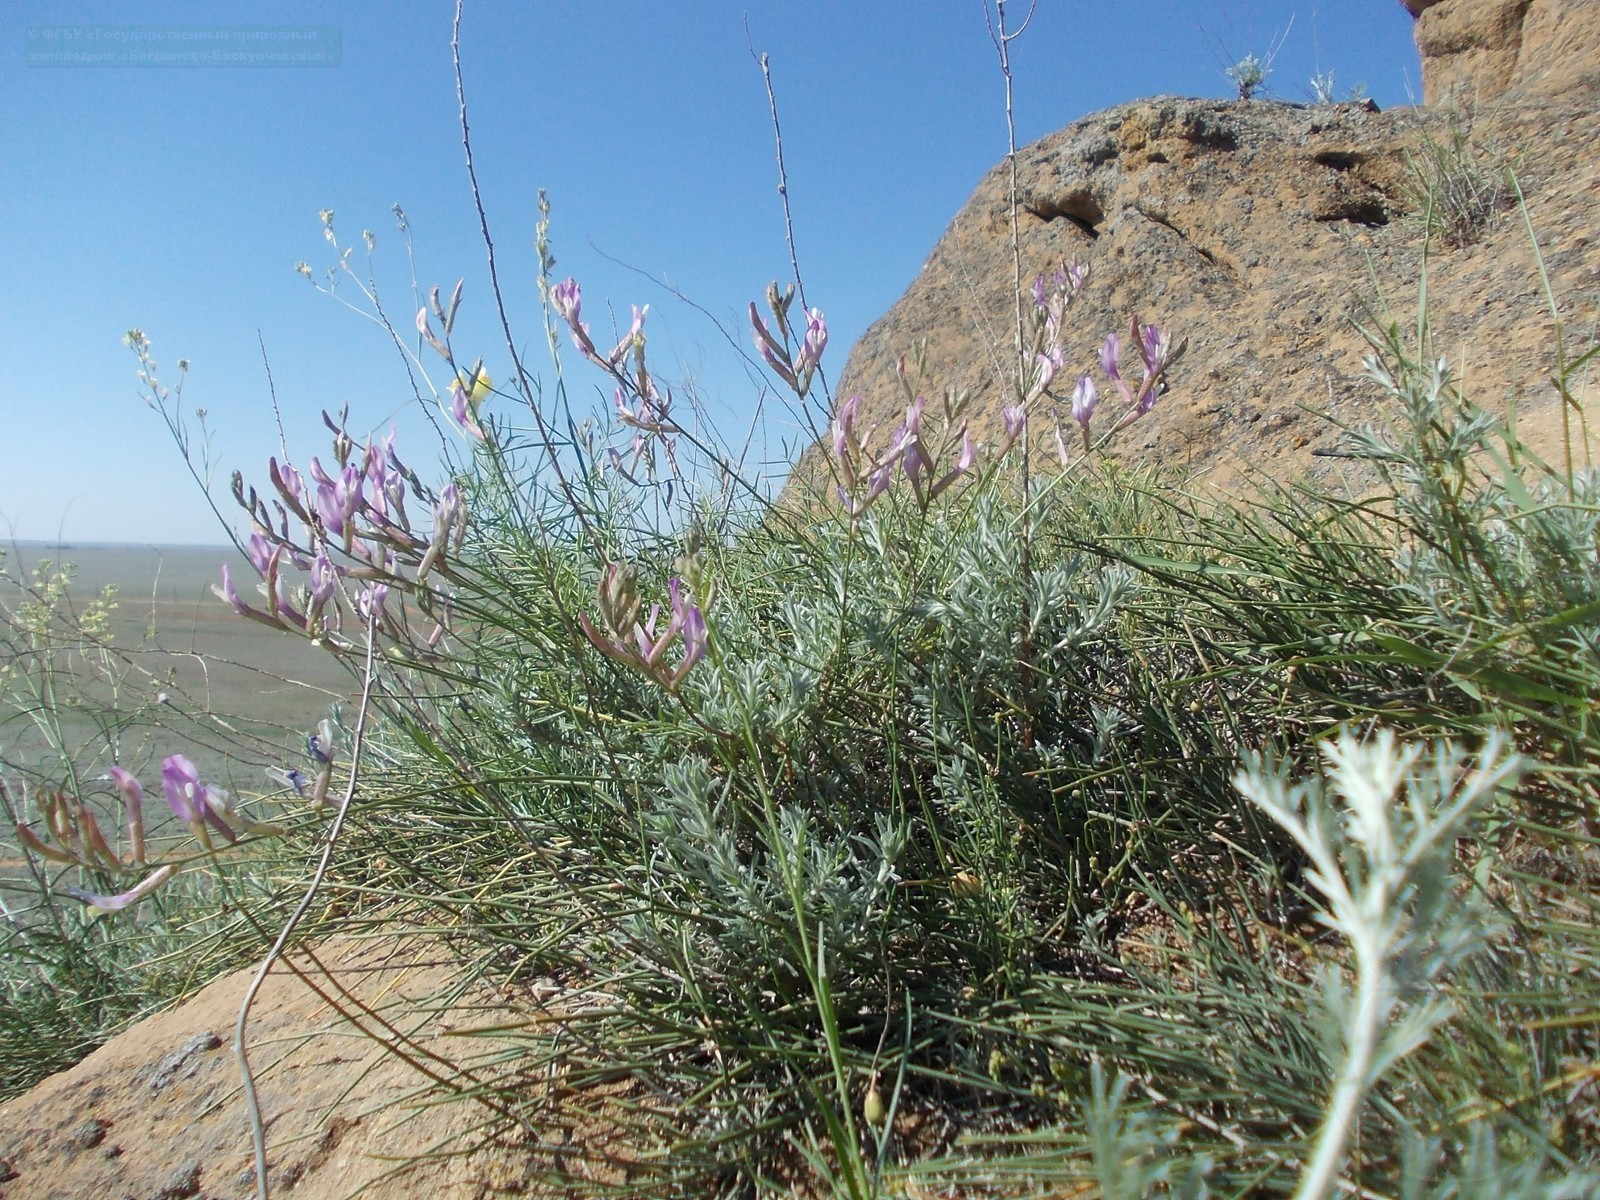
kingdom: Plantae
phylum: Tracheophyta
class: Magnoliopsida
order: Fabales
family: Fabaceae
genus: Astragalus
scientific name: Astragalus skvortsovii
